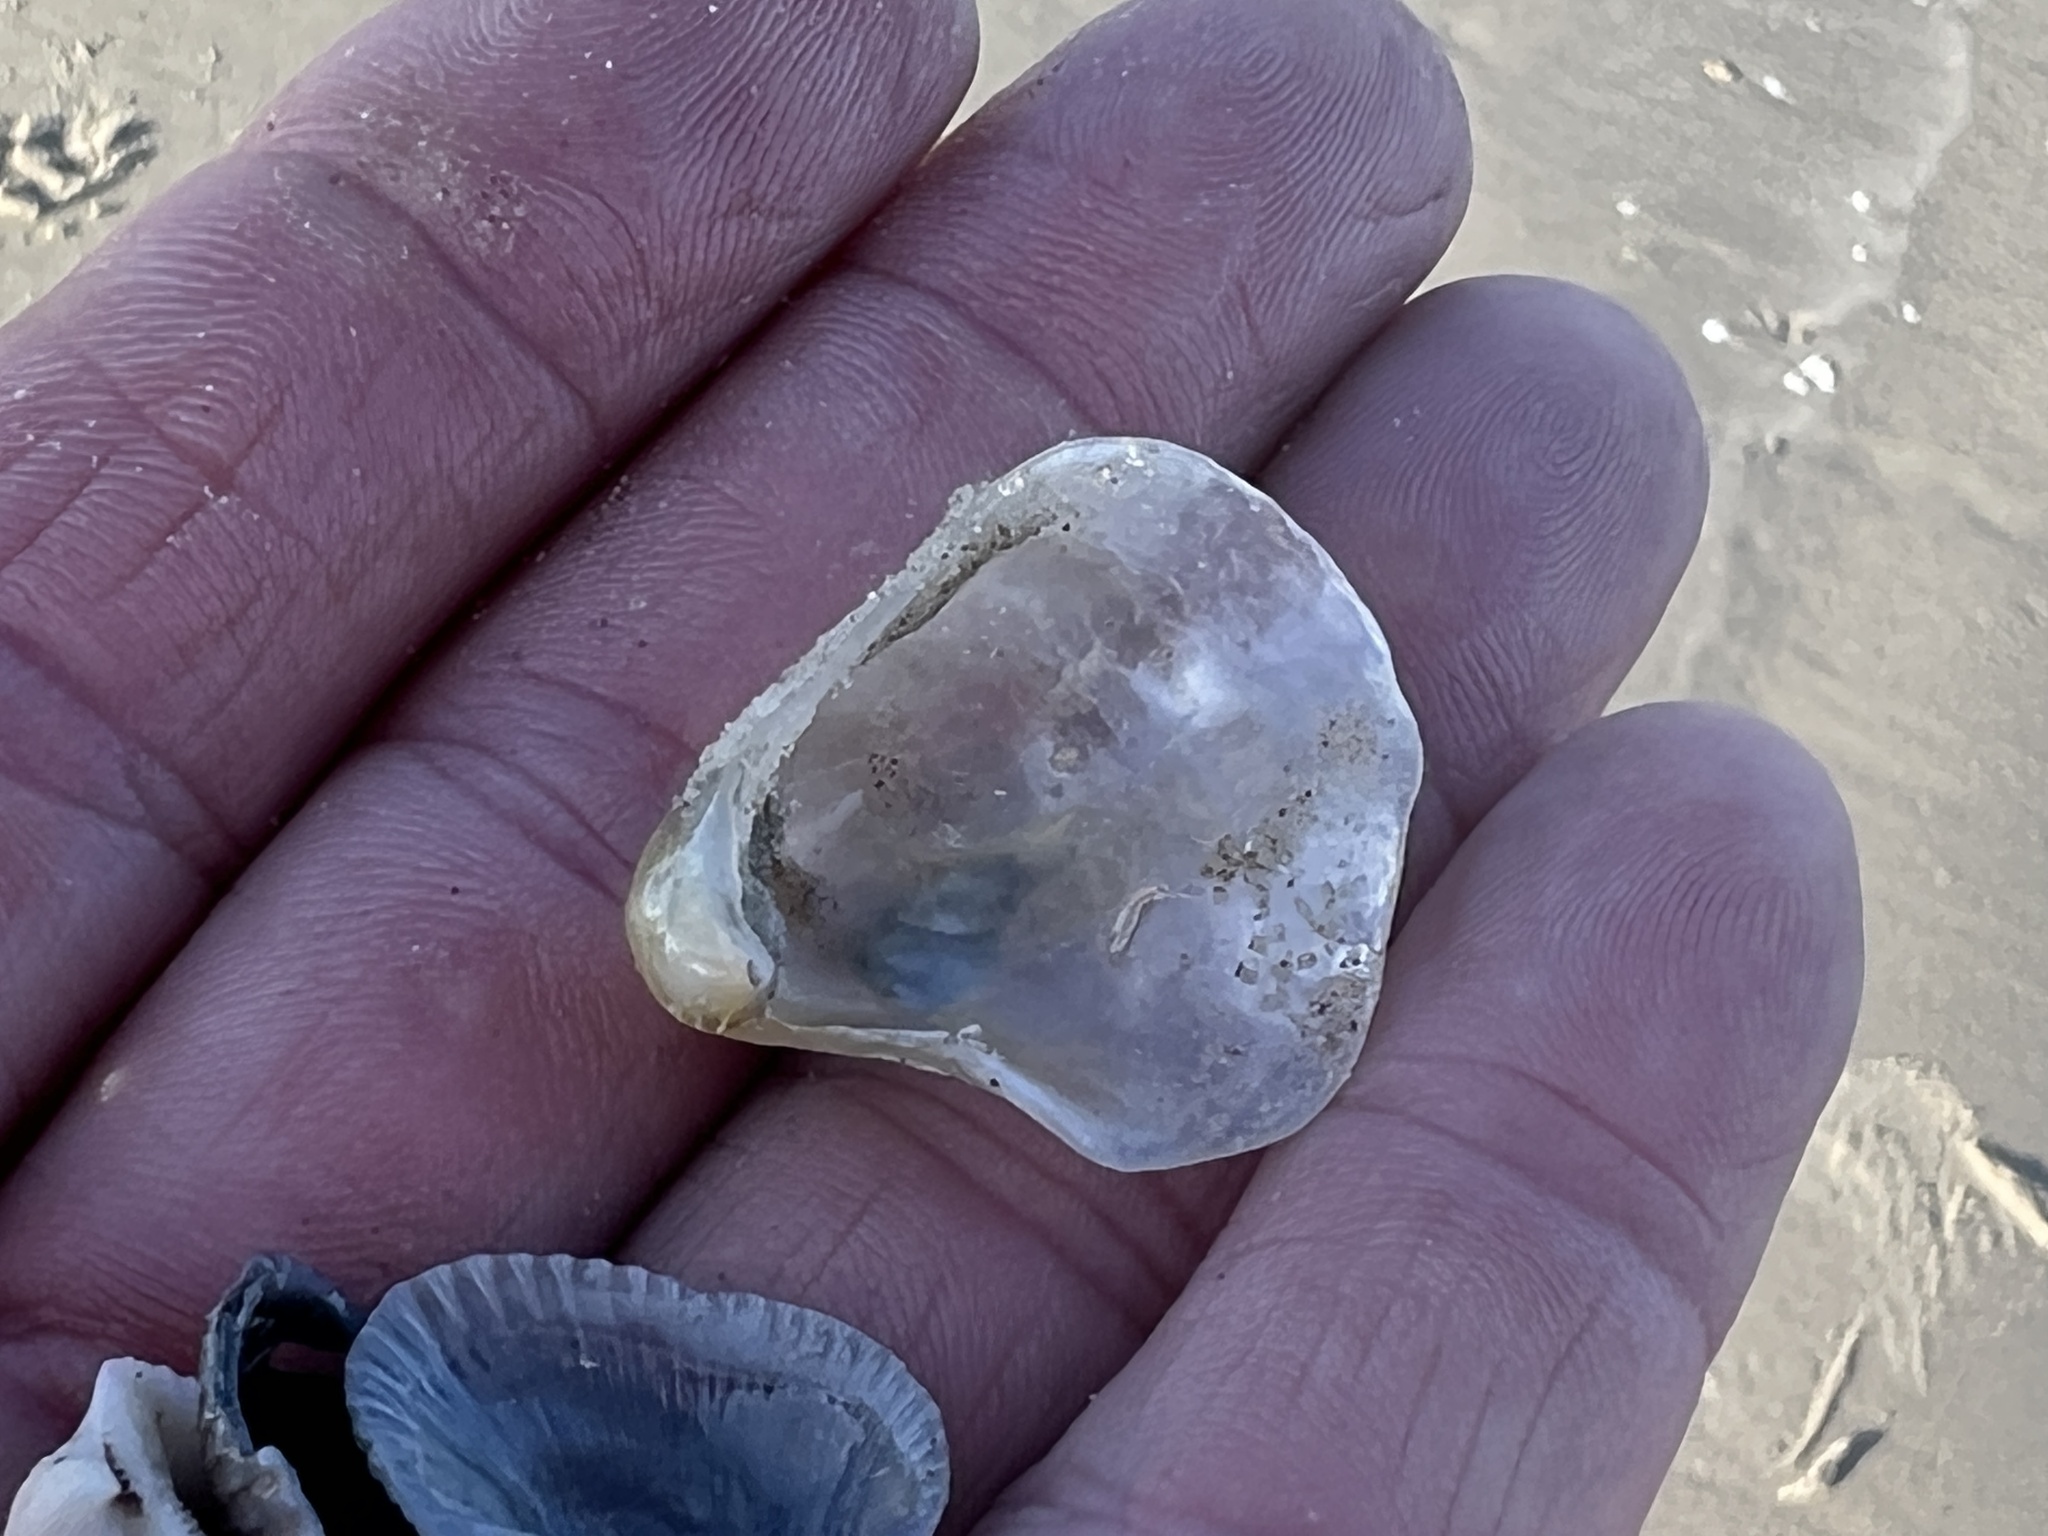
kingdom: Animalia
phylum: Mollusca
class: Bivalvia
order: Pectinida
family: Anomiidae
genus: Anomia
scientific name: Anomia simplex
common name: Common jingle shell
